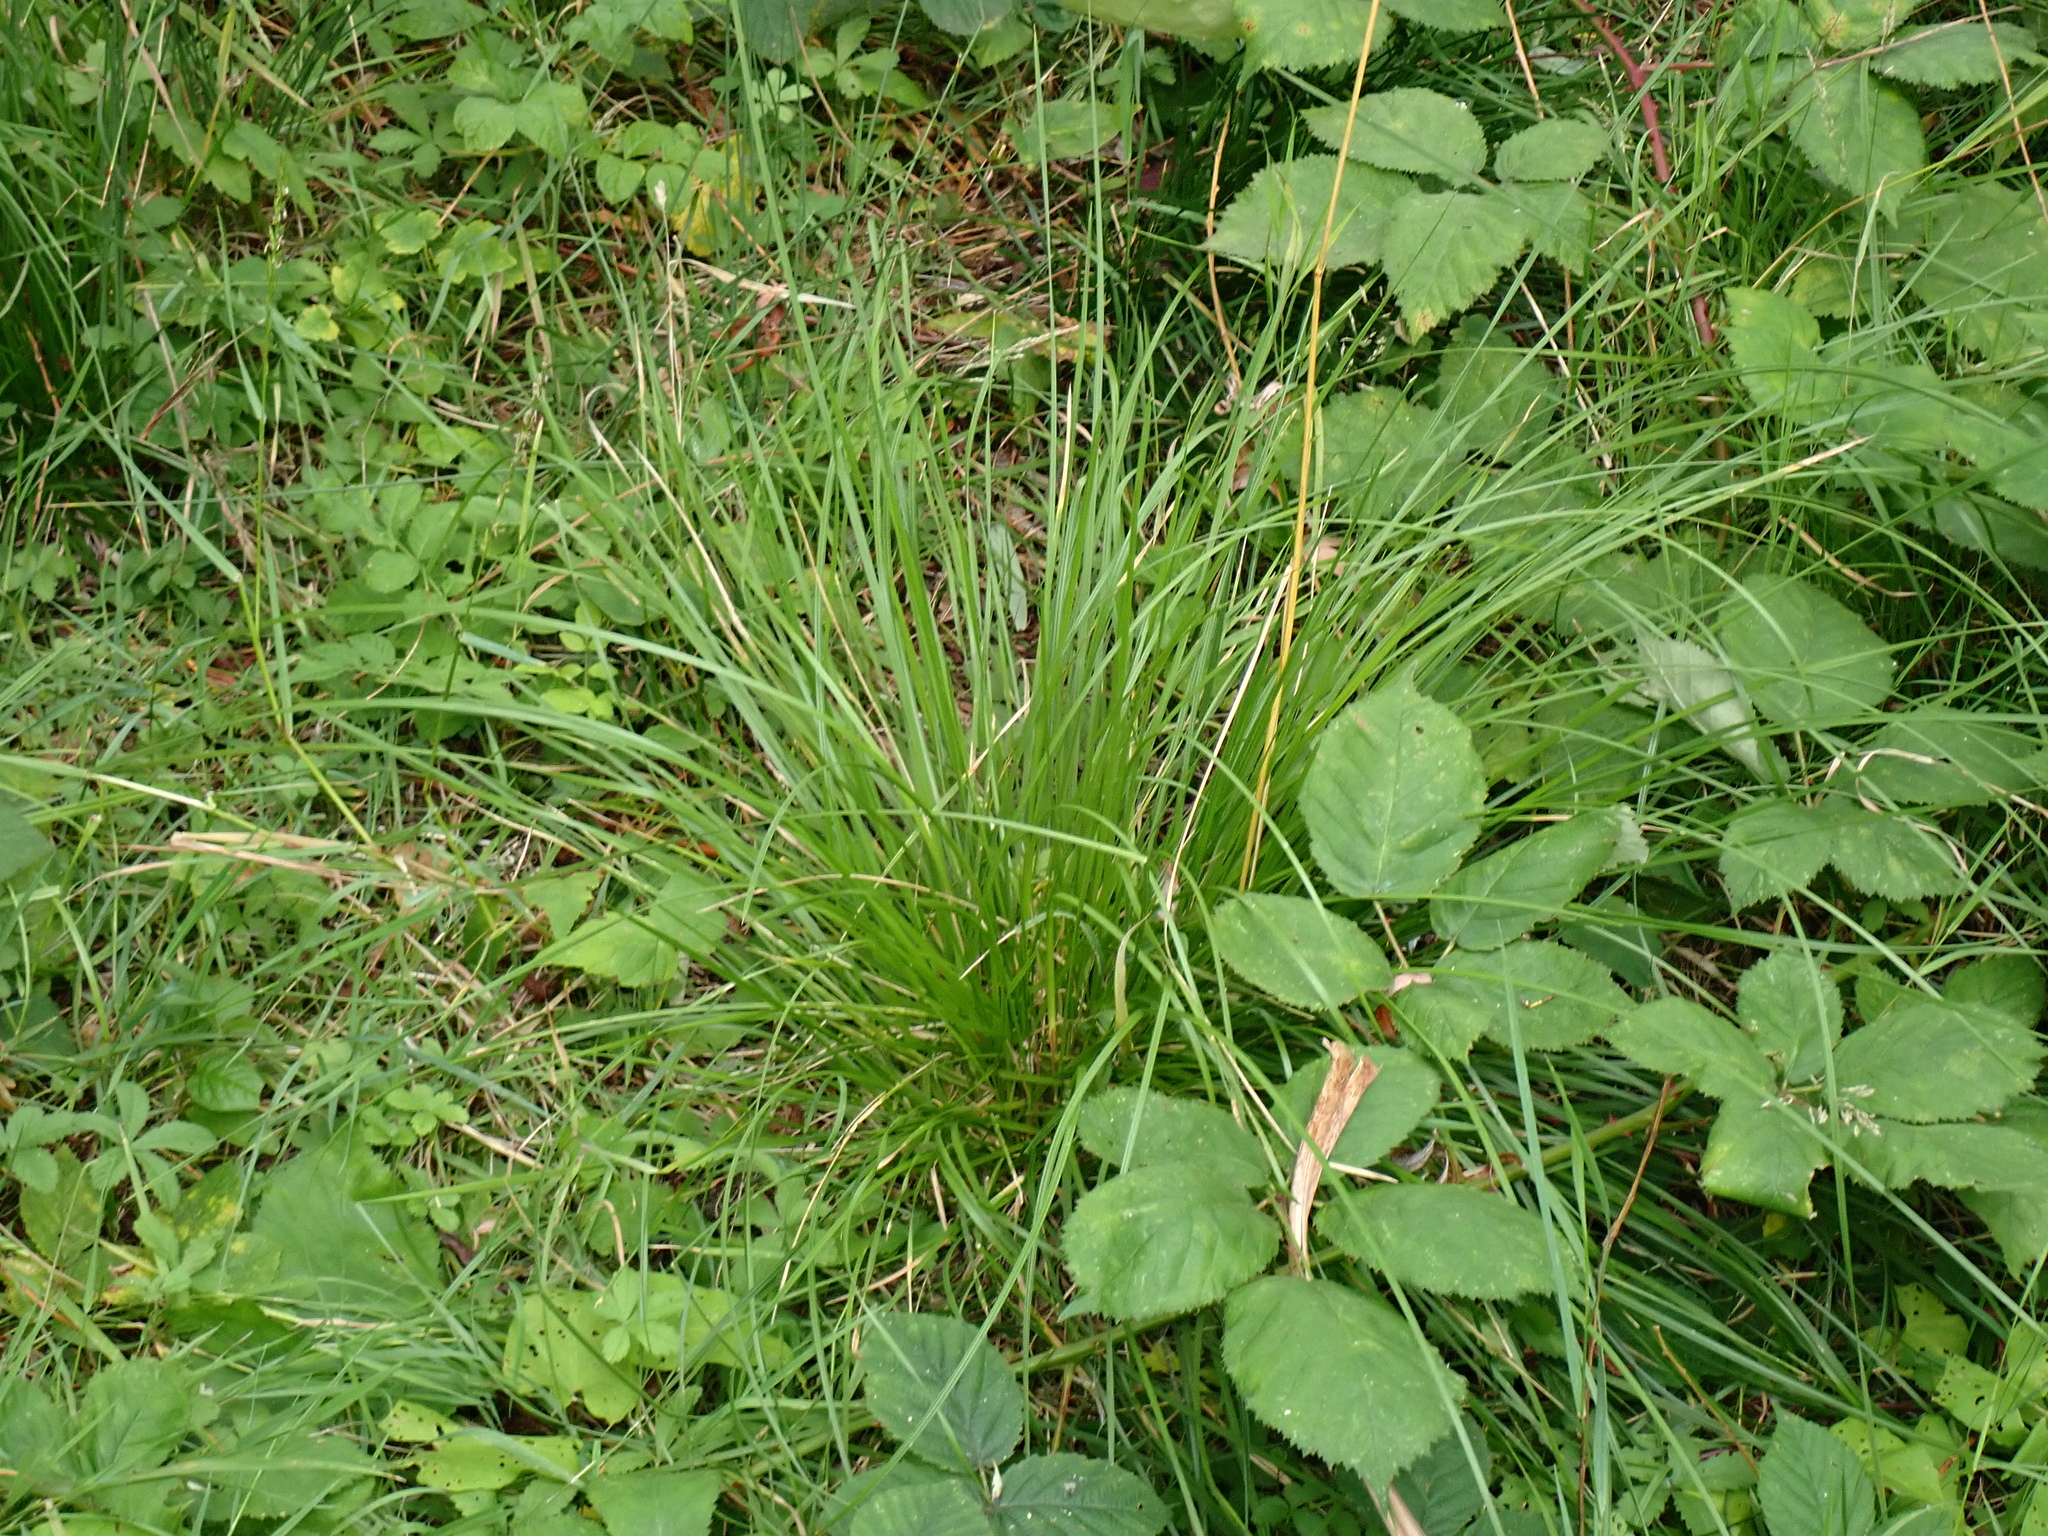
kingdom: Plantae
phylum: Tracheophyta
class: Liliopsida
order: Poales
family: Poaceae
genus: Deschampsia
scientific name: Deschampsia cespitosa
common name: Tufted hair-grass
